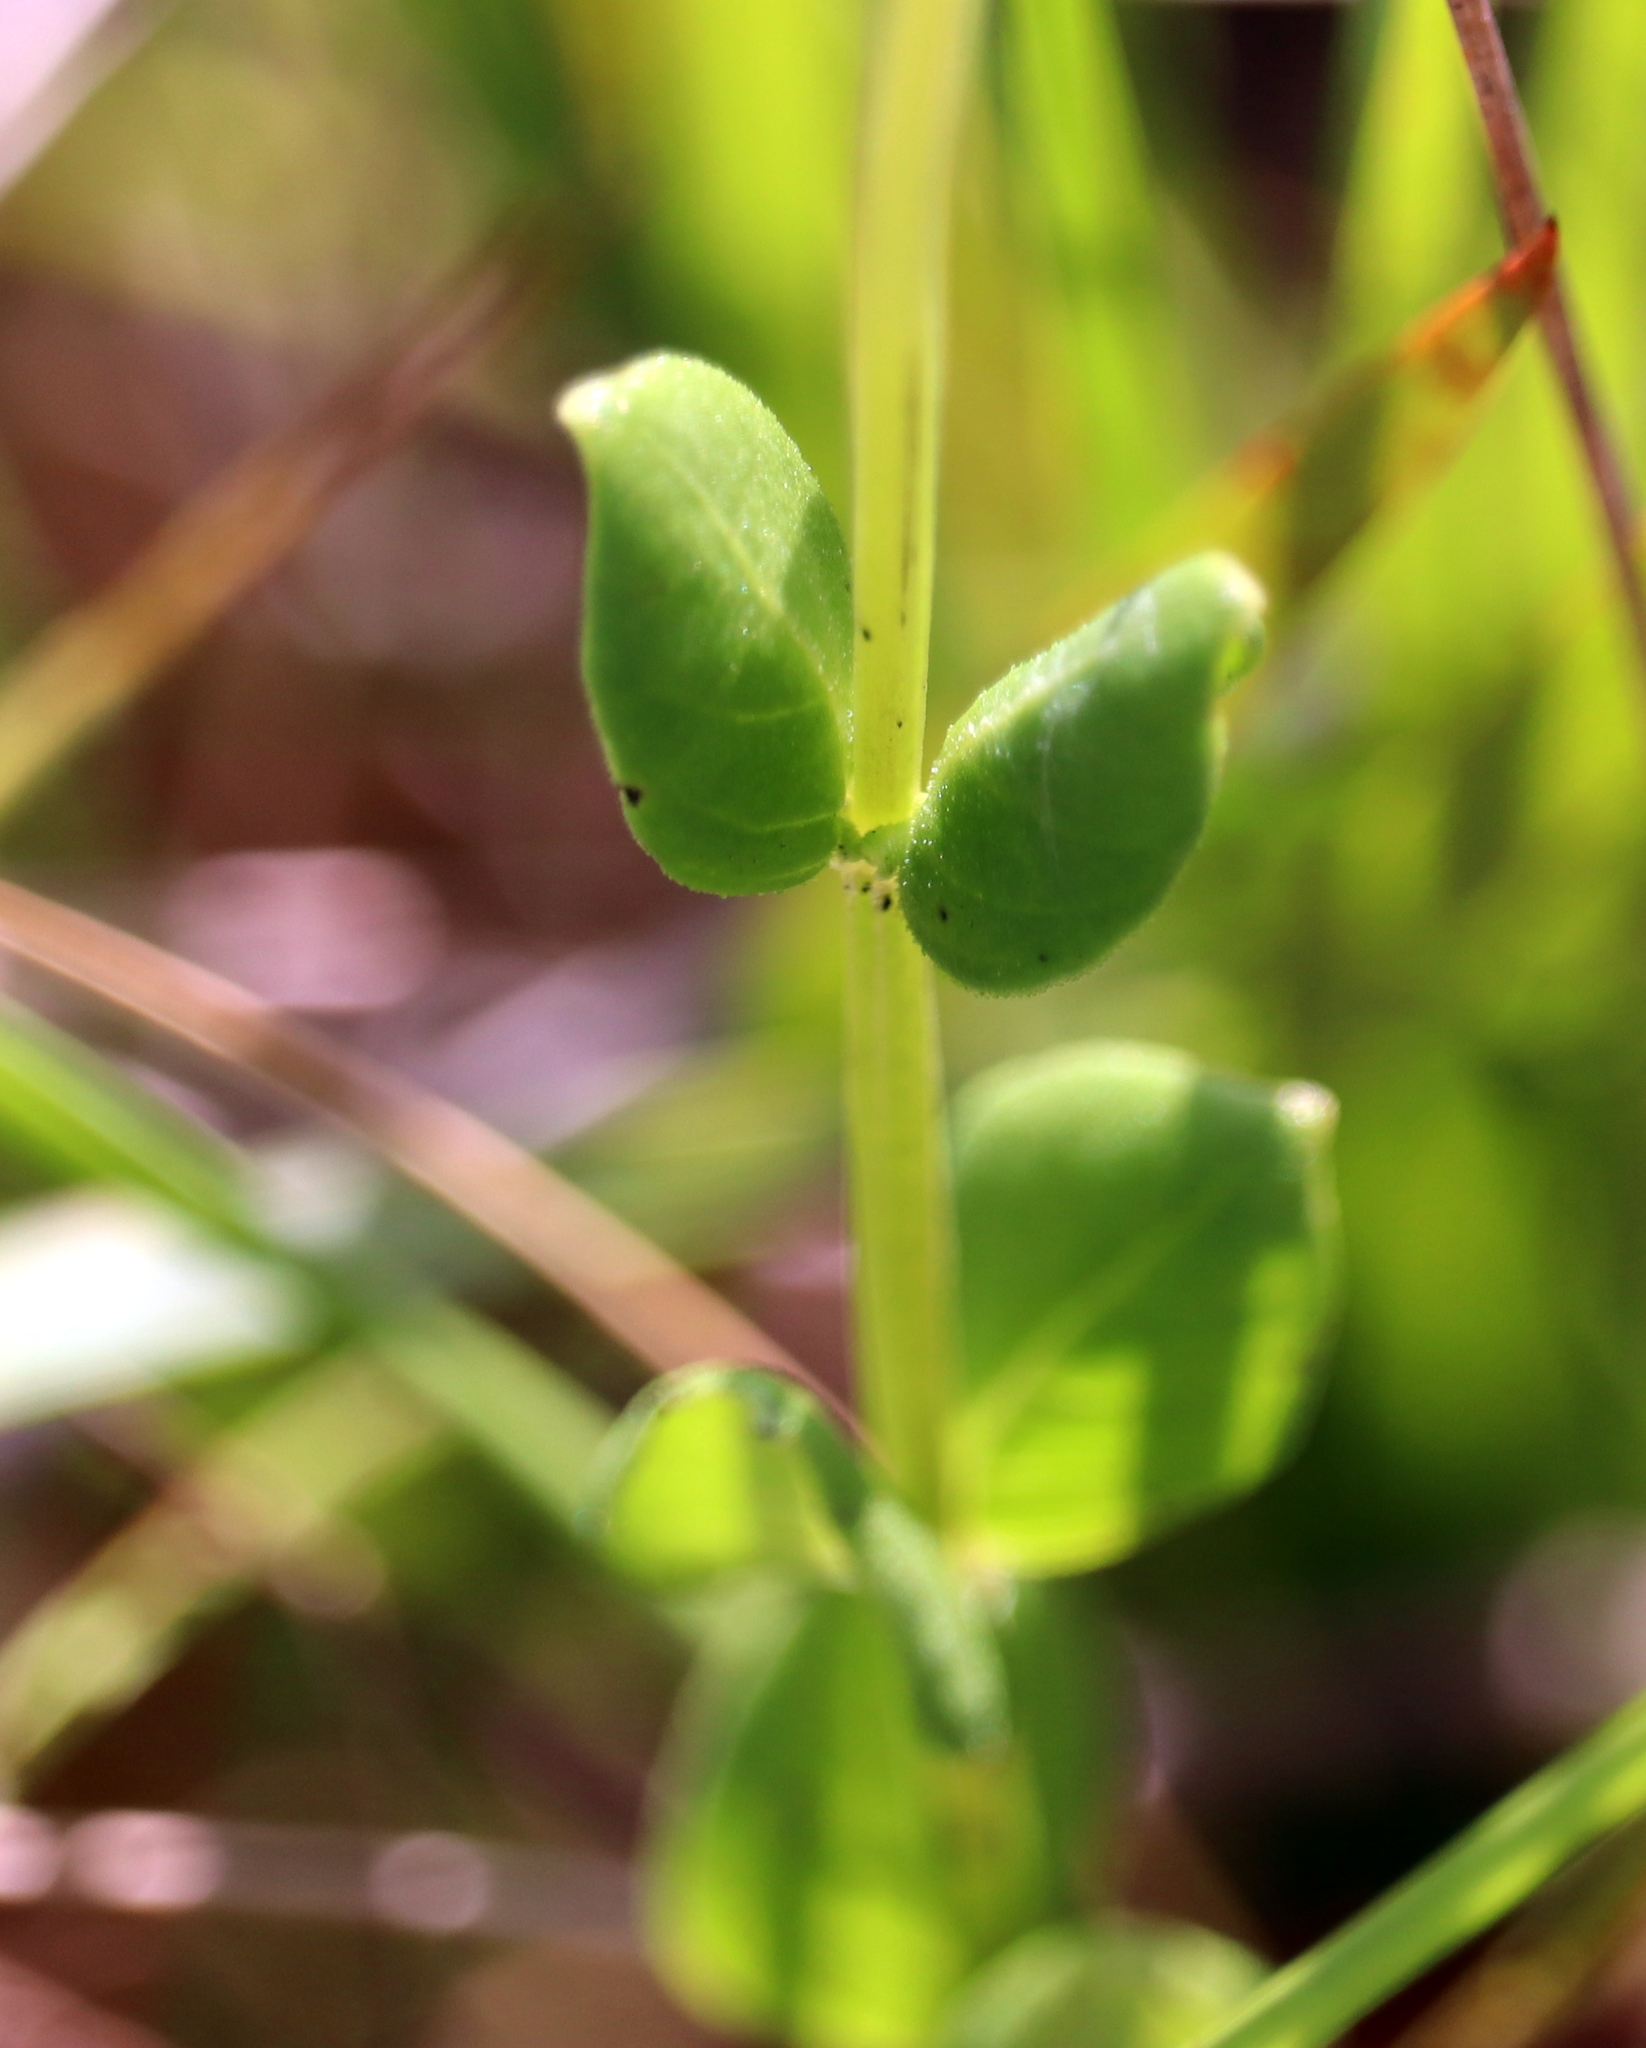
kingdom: Plantae
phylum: Tracheophyta
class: Magnoliopsida
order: Gentianales
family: Loganiaceae
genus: Mitreola
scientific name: Mitreola sessilifolia
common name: Swamp hornpod
